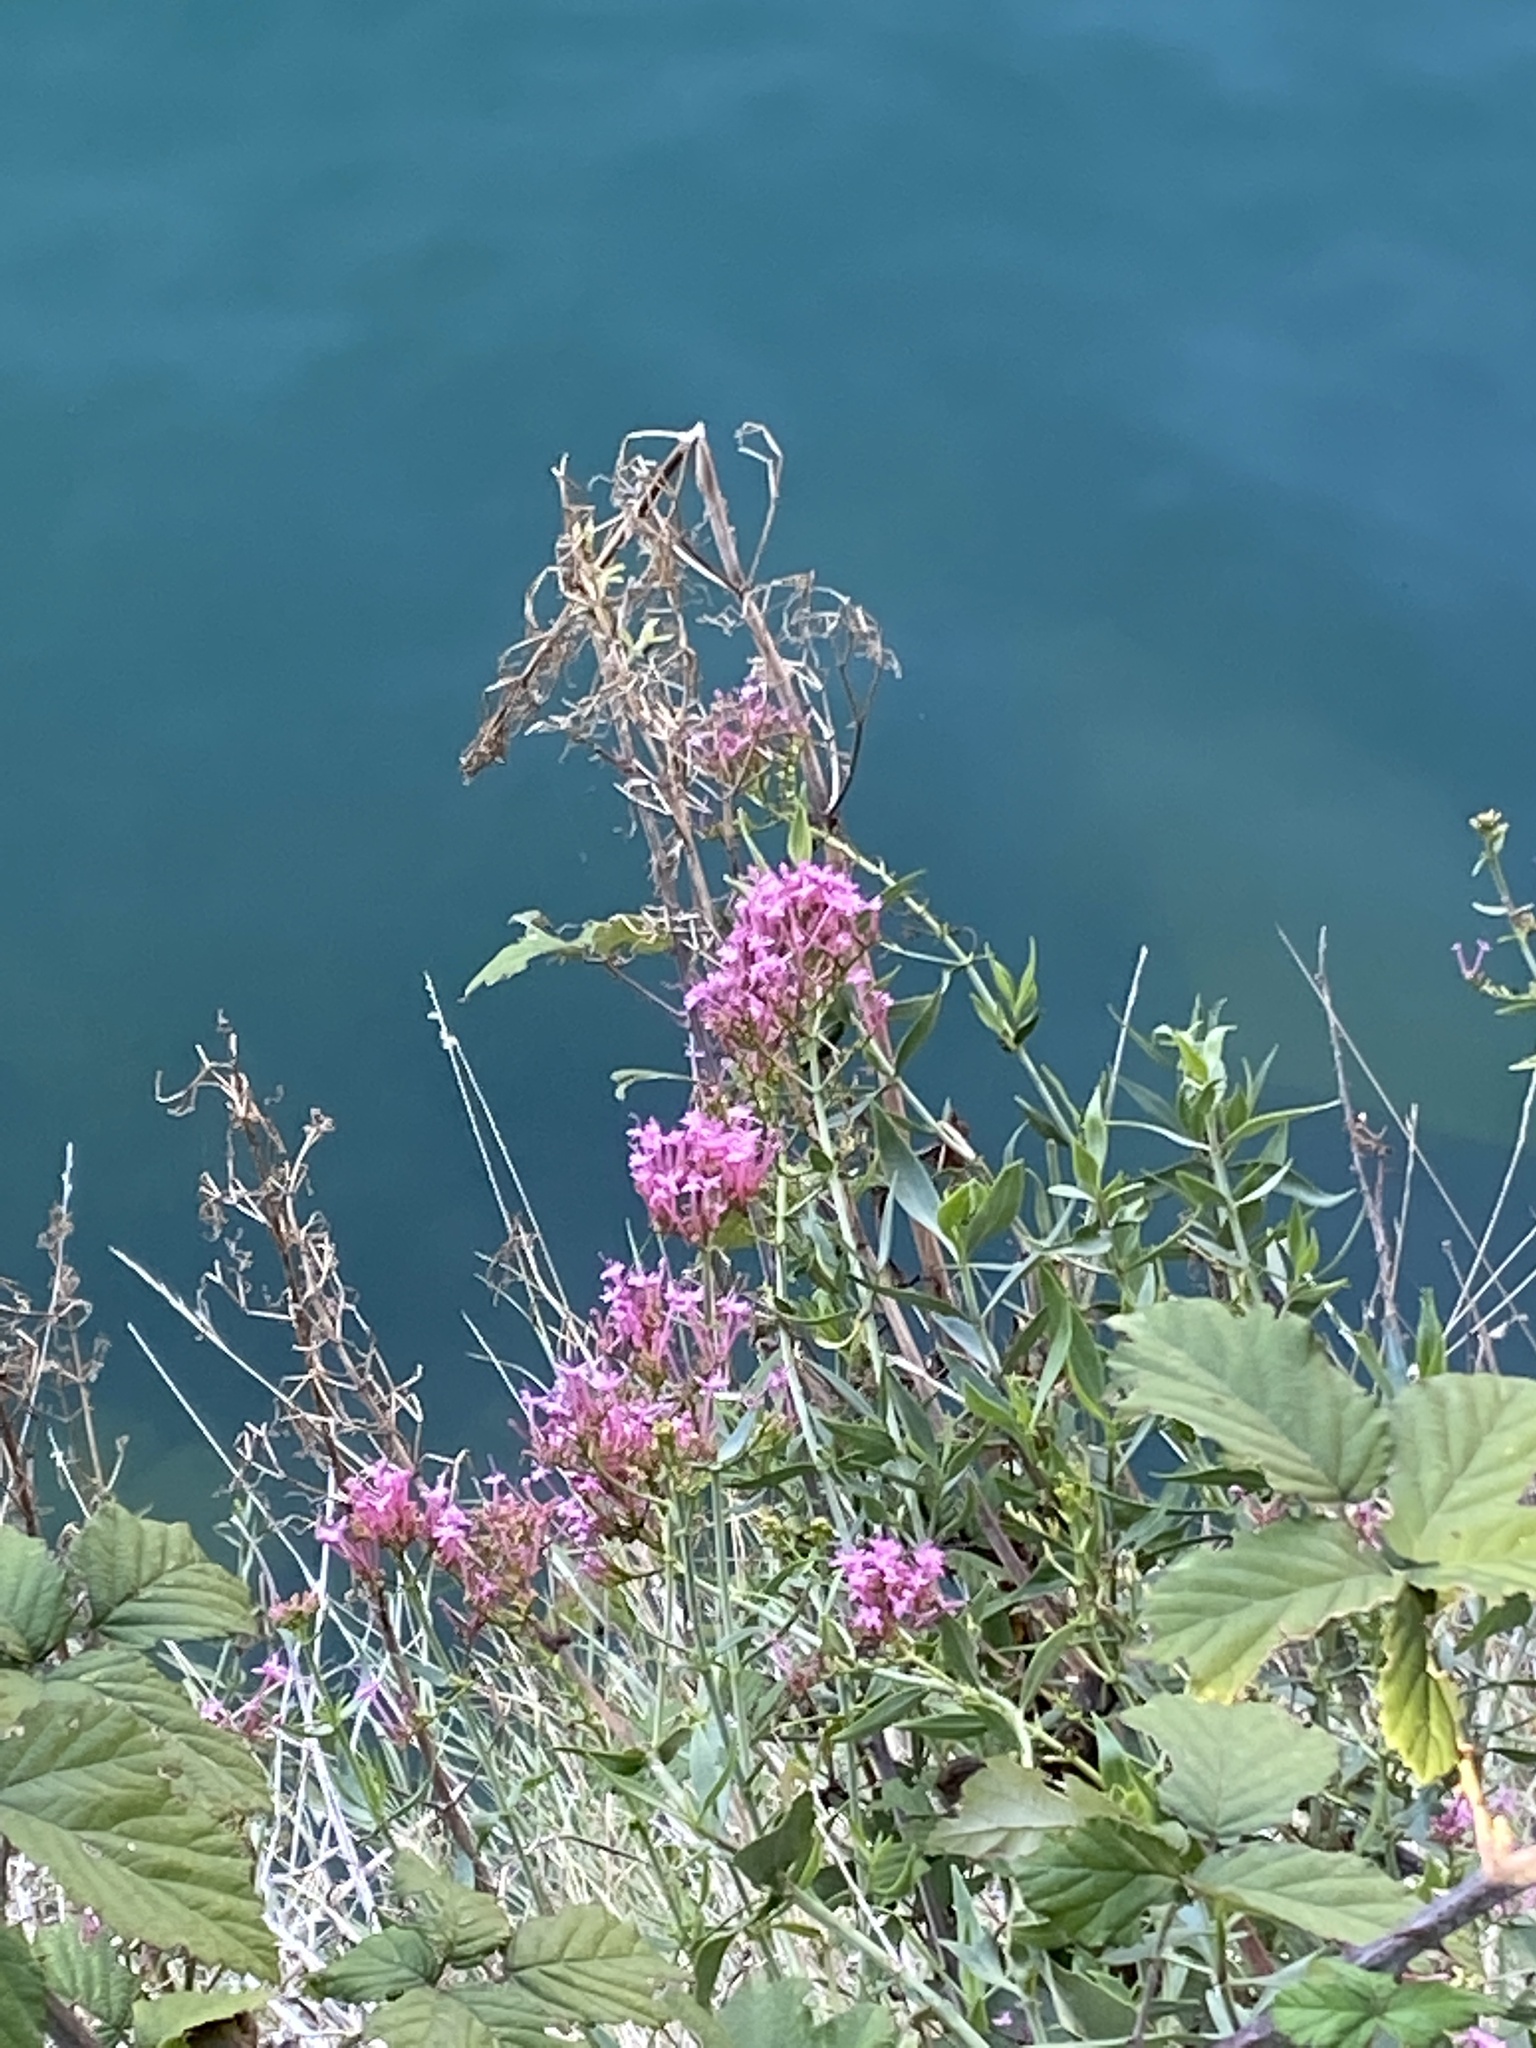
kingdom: Plantae
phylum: Tracheophyta
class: Magnoliopsida
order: Dipsacales
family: Caprifoliaceae
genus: Centranthus
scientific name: Centranthus ruber
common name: Red valerian
